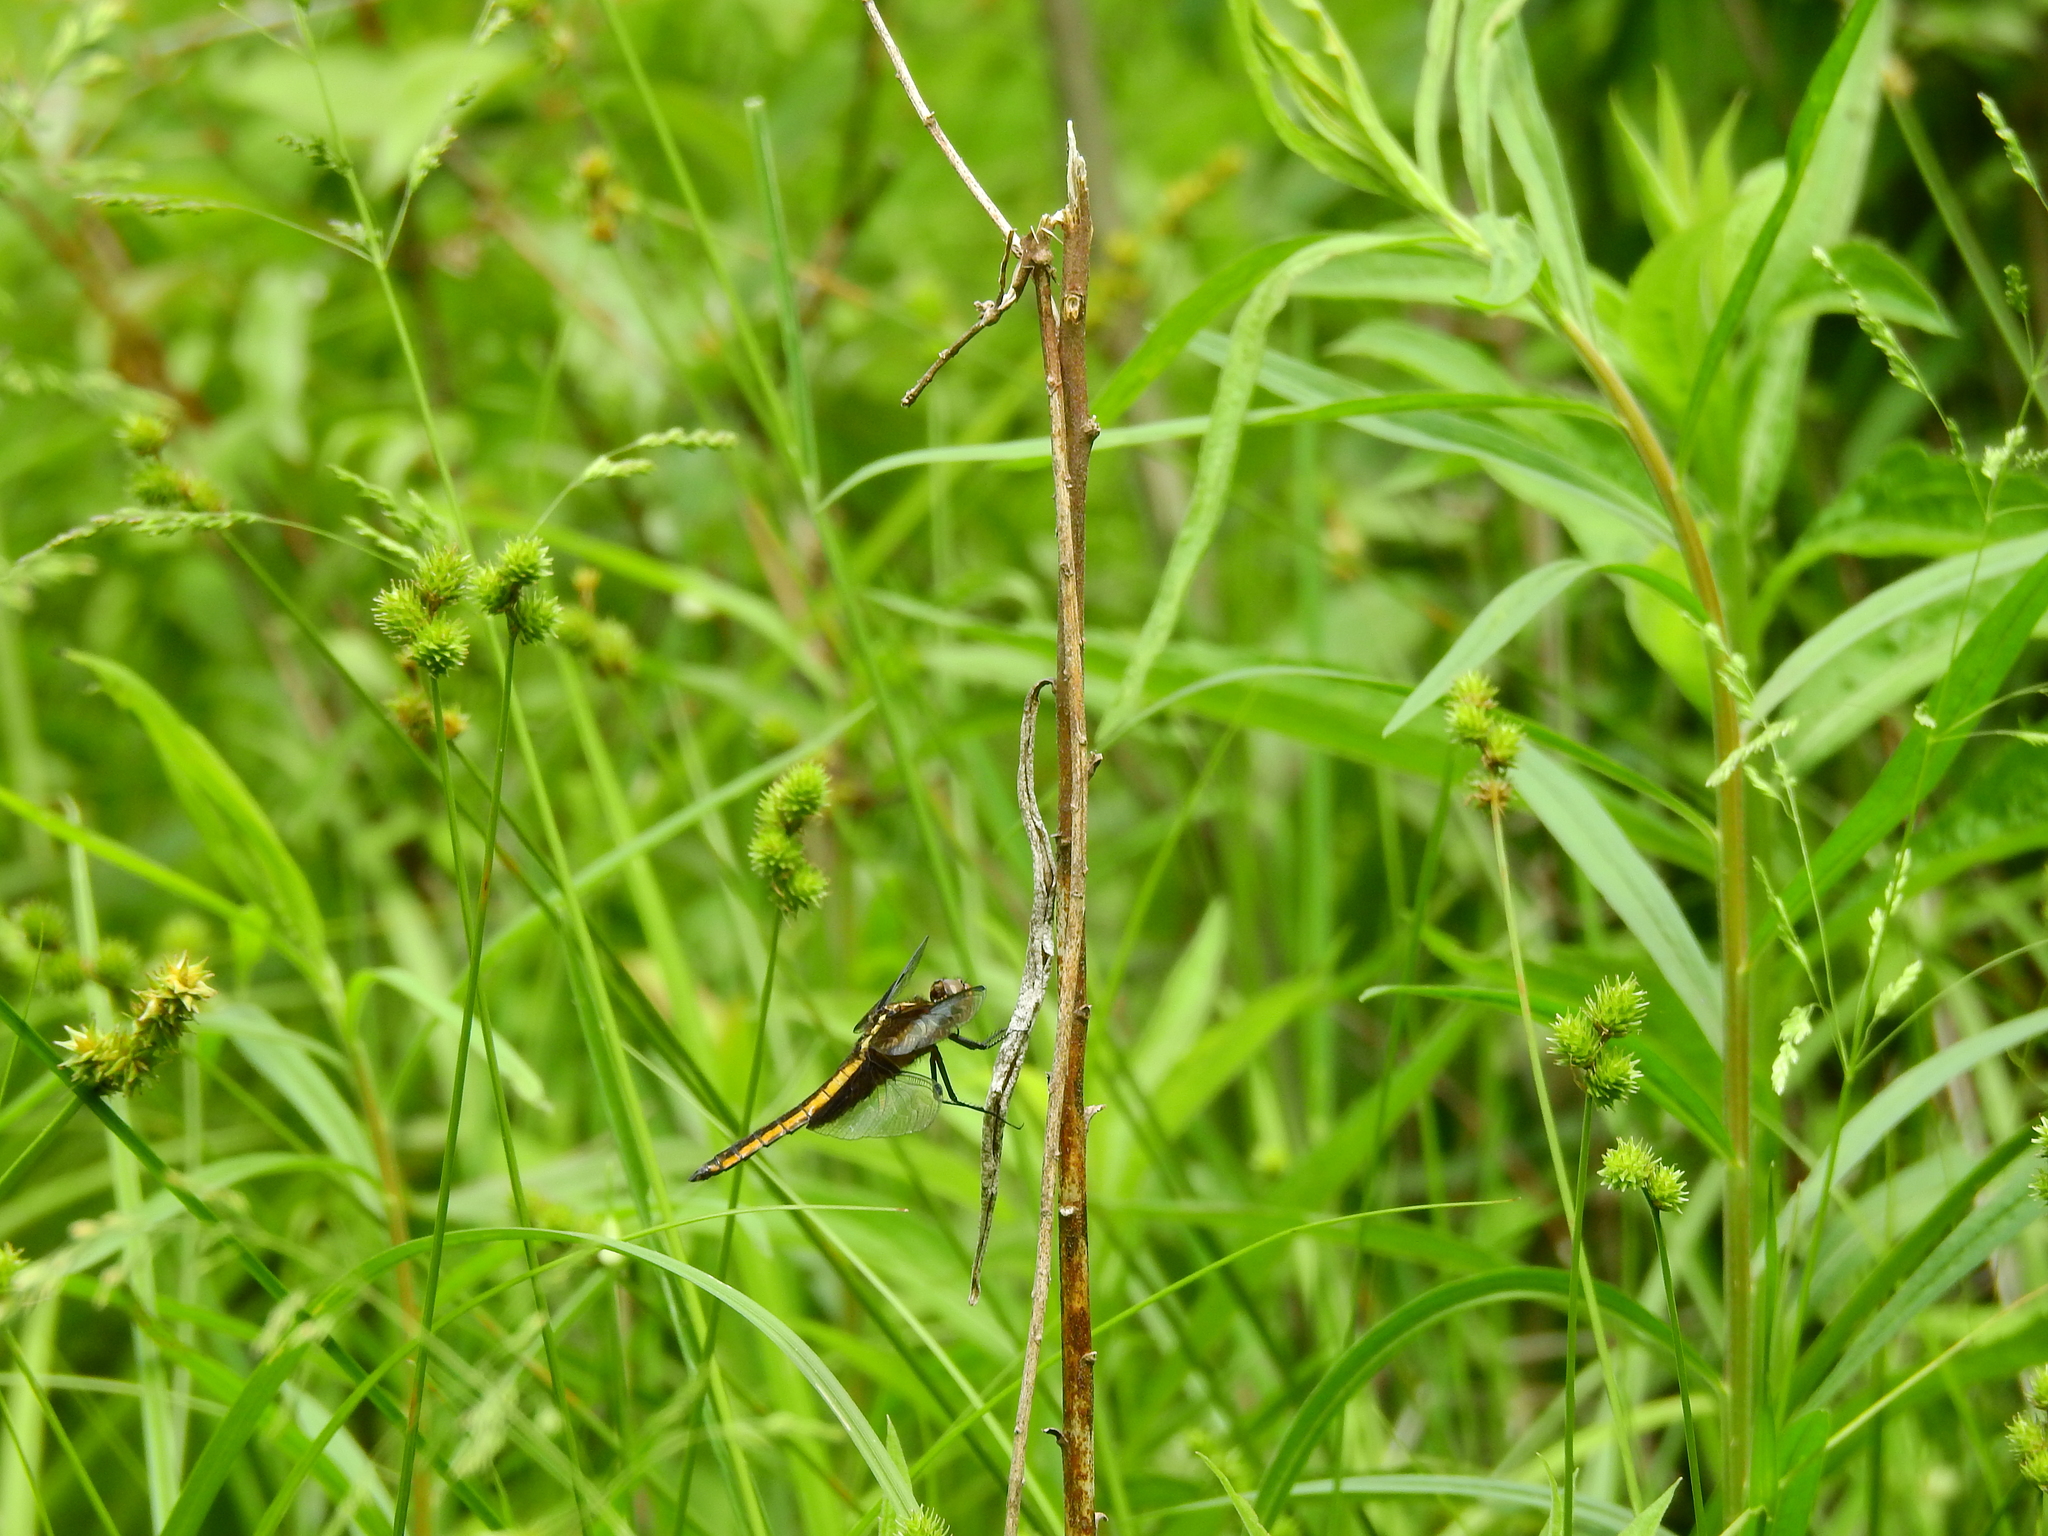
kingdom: Animalia
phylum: Arthropoda
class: Insecta
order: Odonata
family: Libellulidae
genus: Libellula
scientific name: Libellula luctuosa
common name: Widow skimmer
